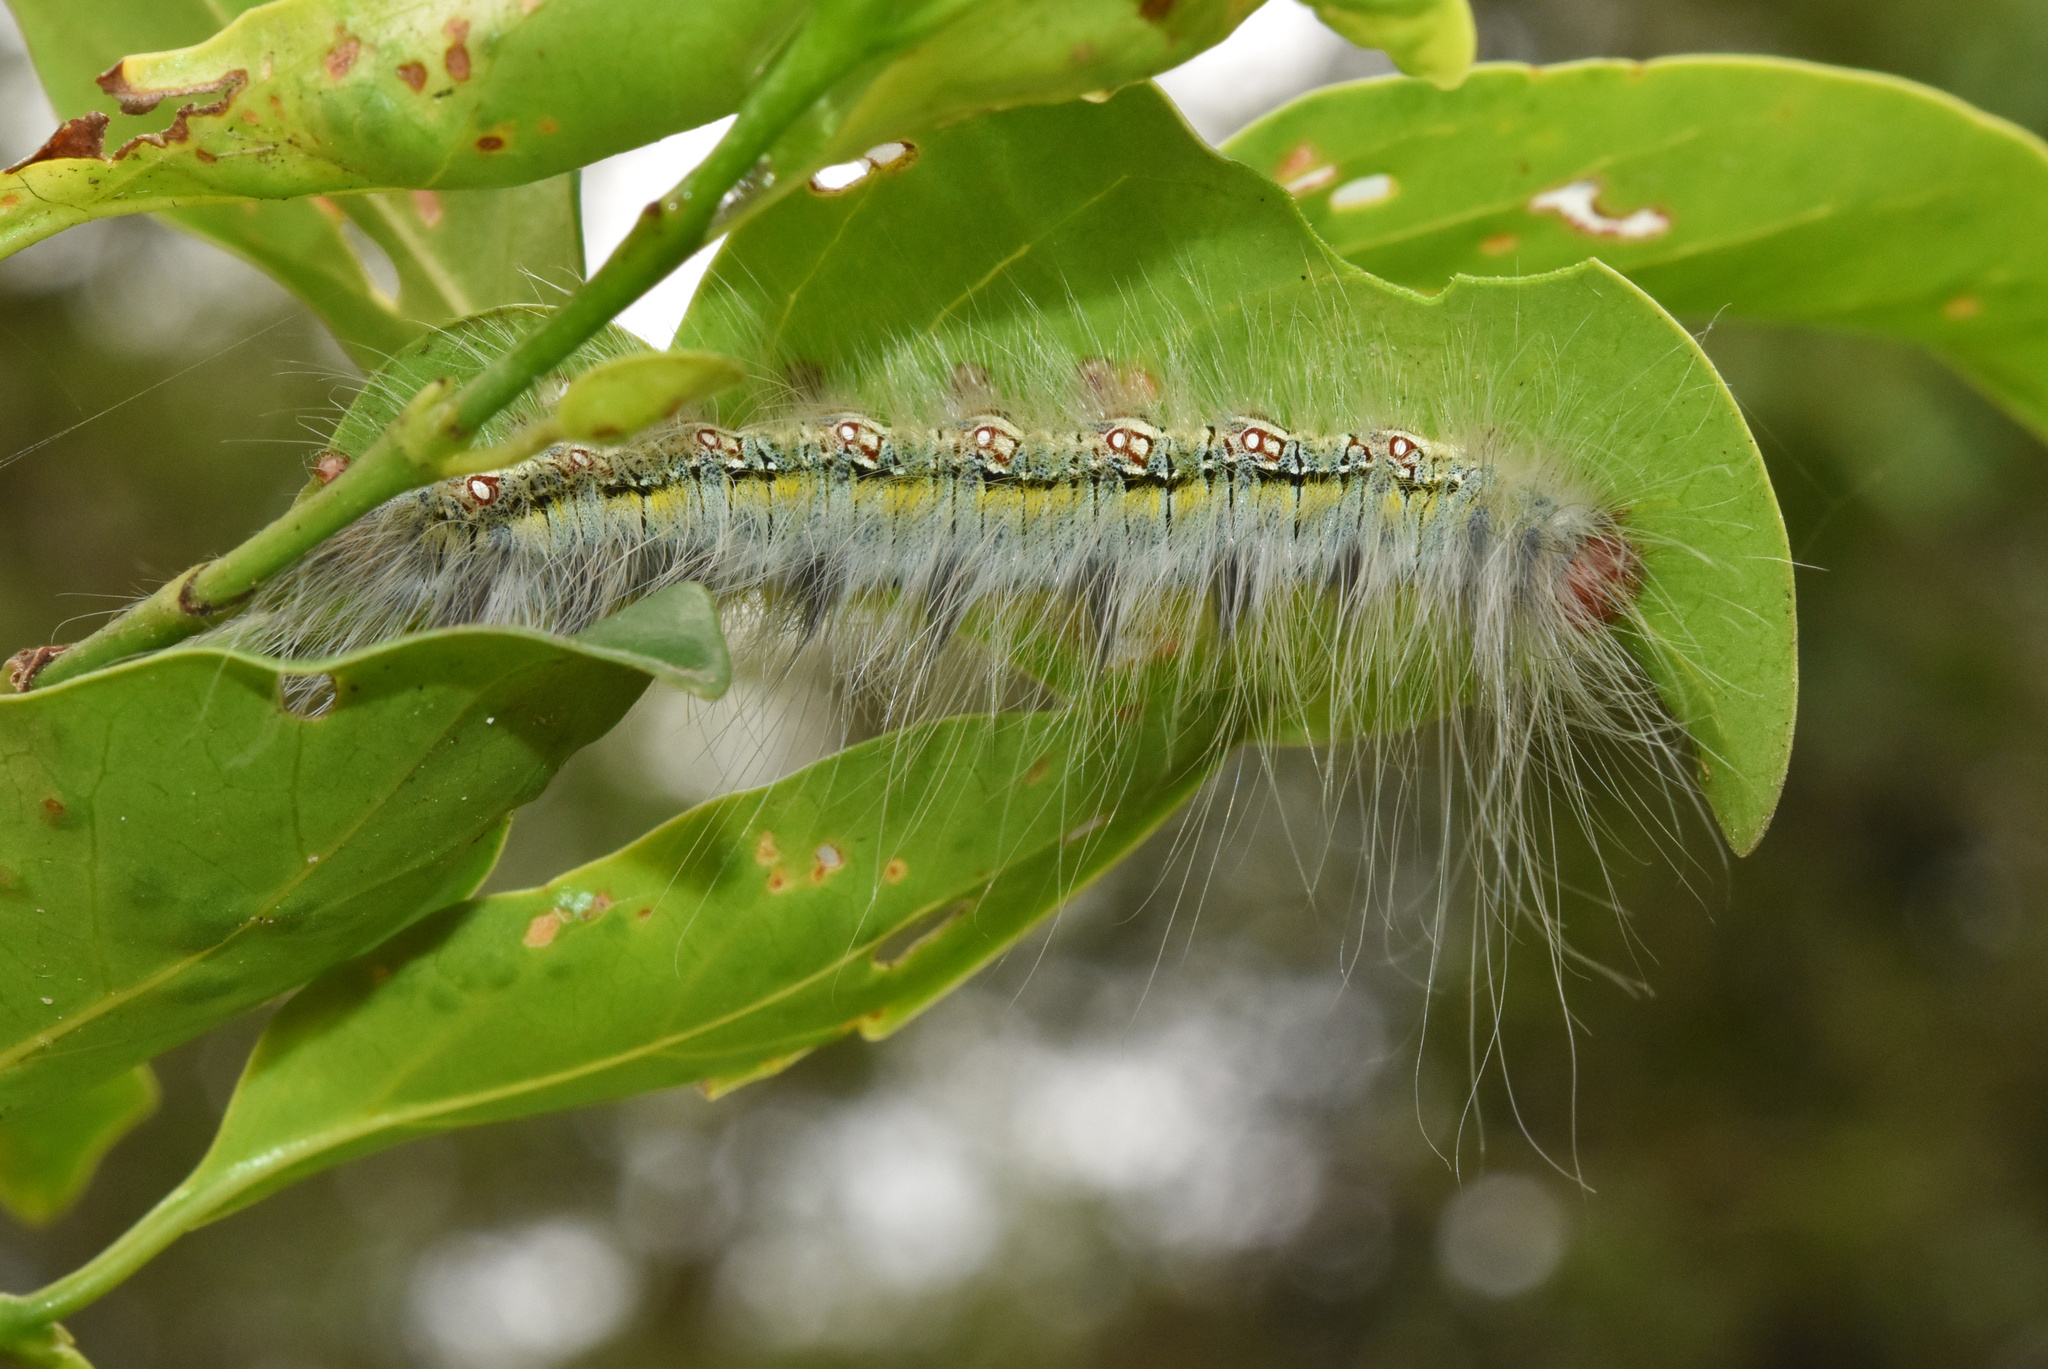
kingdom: Animalia
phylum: Arthropoda
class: Insecta
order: Lepidoptera
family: Eupterotidae
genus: Poloma
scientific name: Poloma angulata
